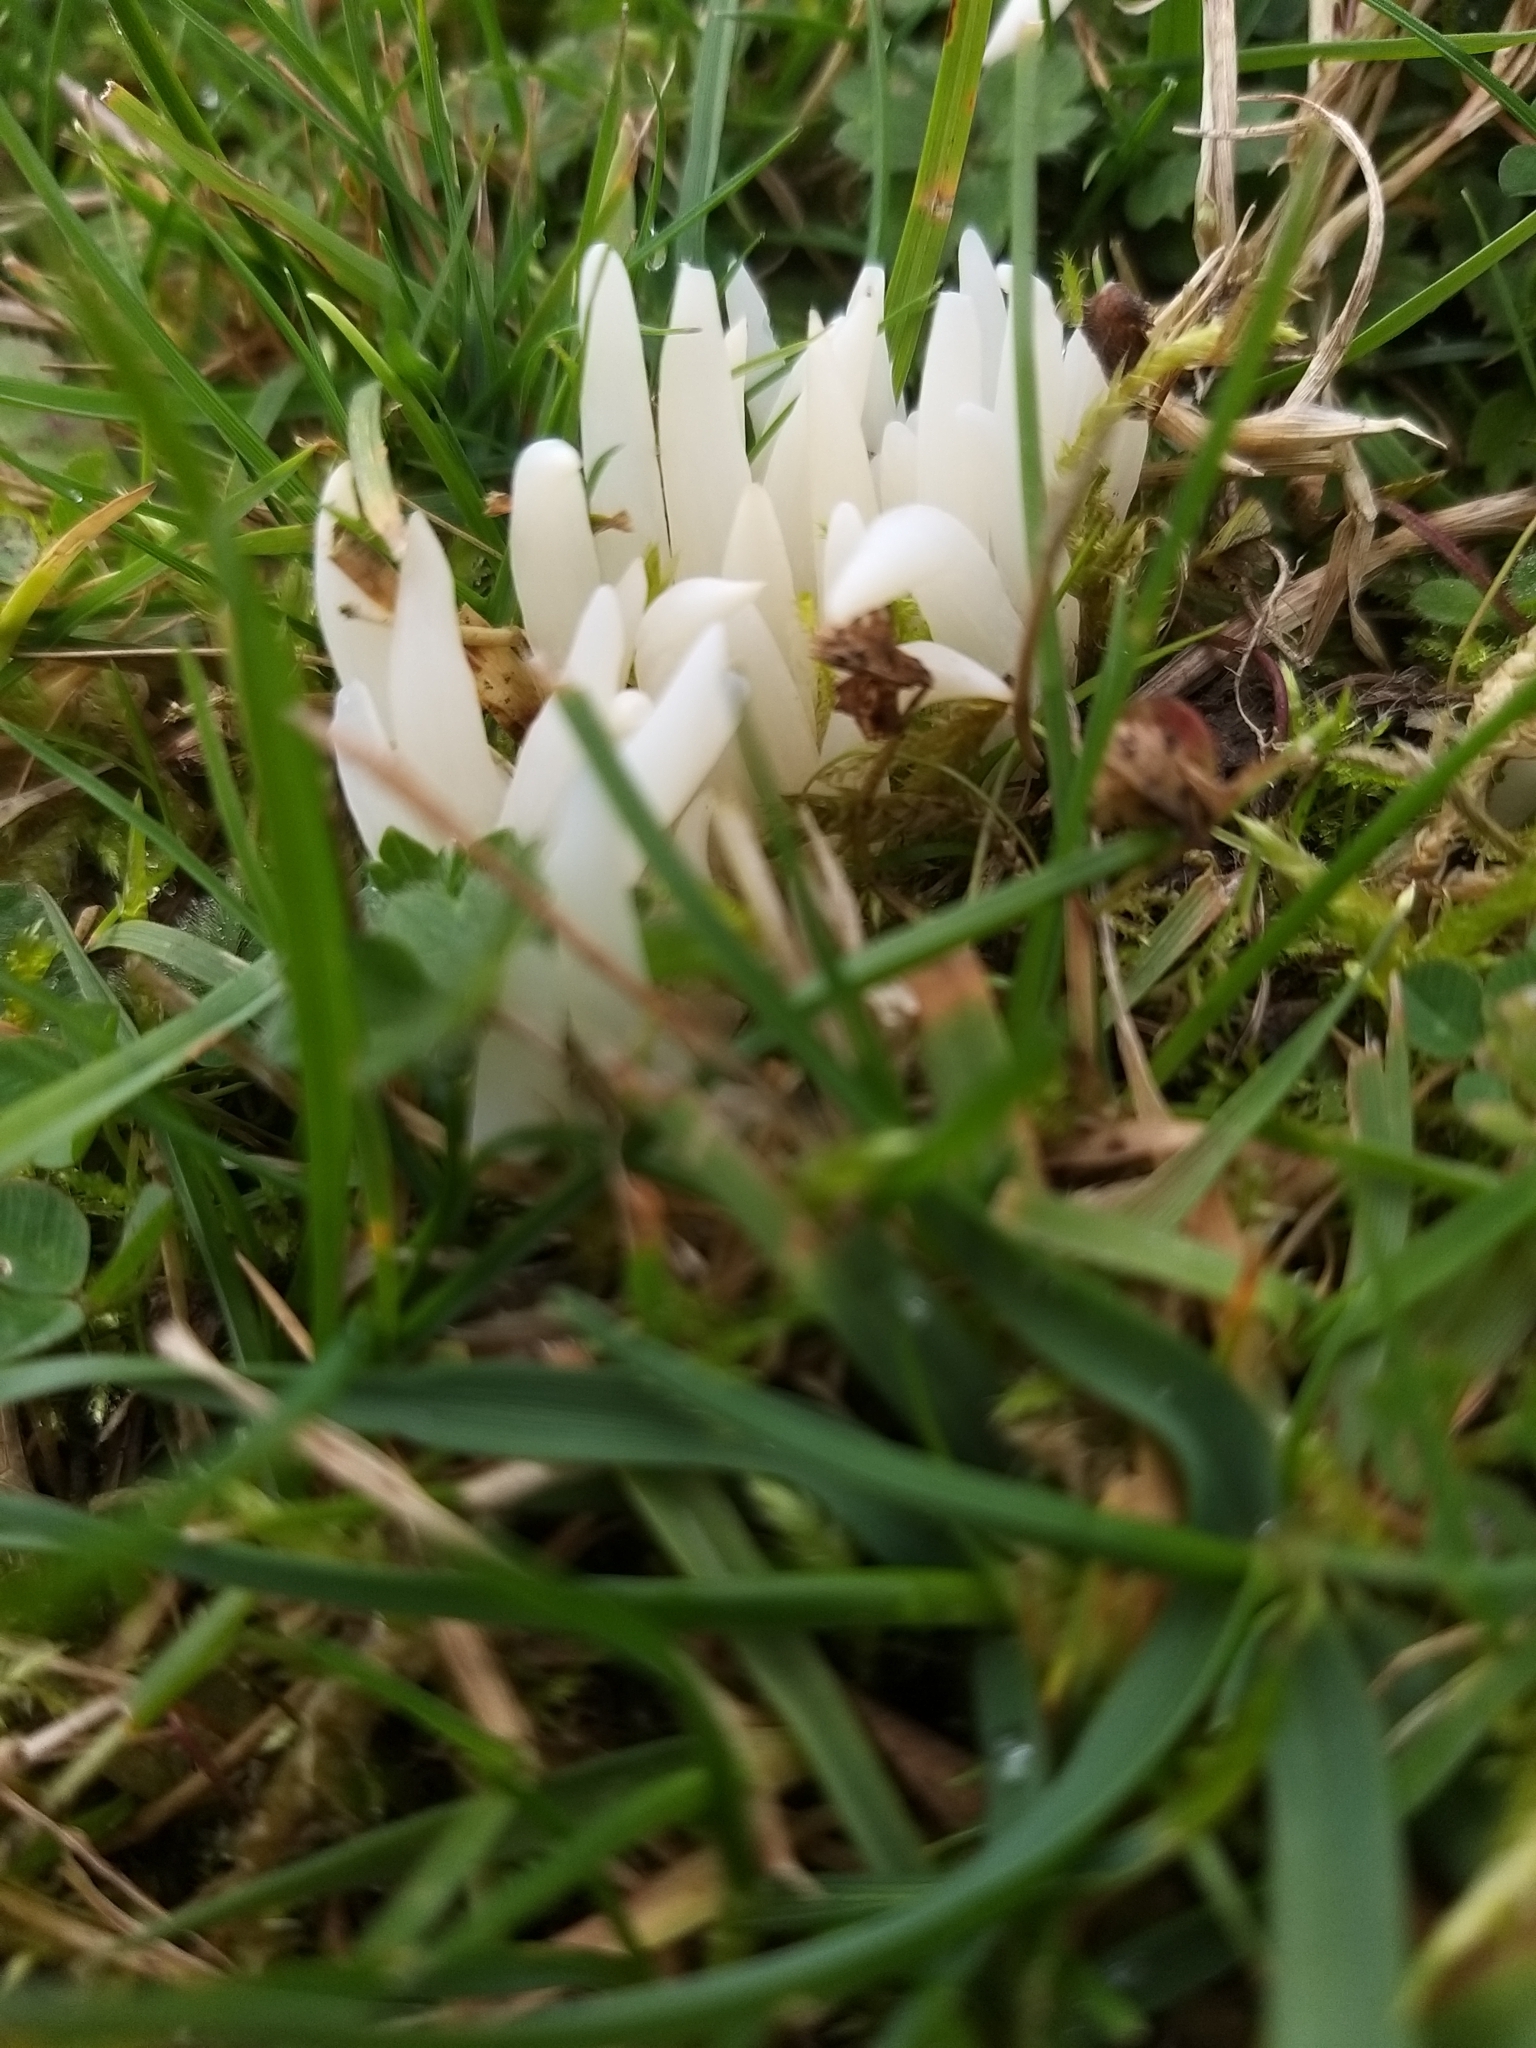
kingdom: Fungi
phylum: Basidiomycota
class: Agaricomycetes
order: Agaricales
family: Clavariaceae
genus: Clavaria
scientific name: Clavaria fragilis
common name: White spindles
